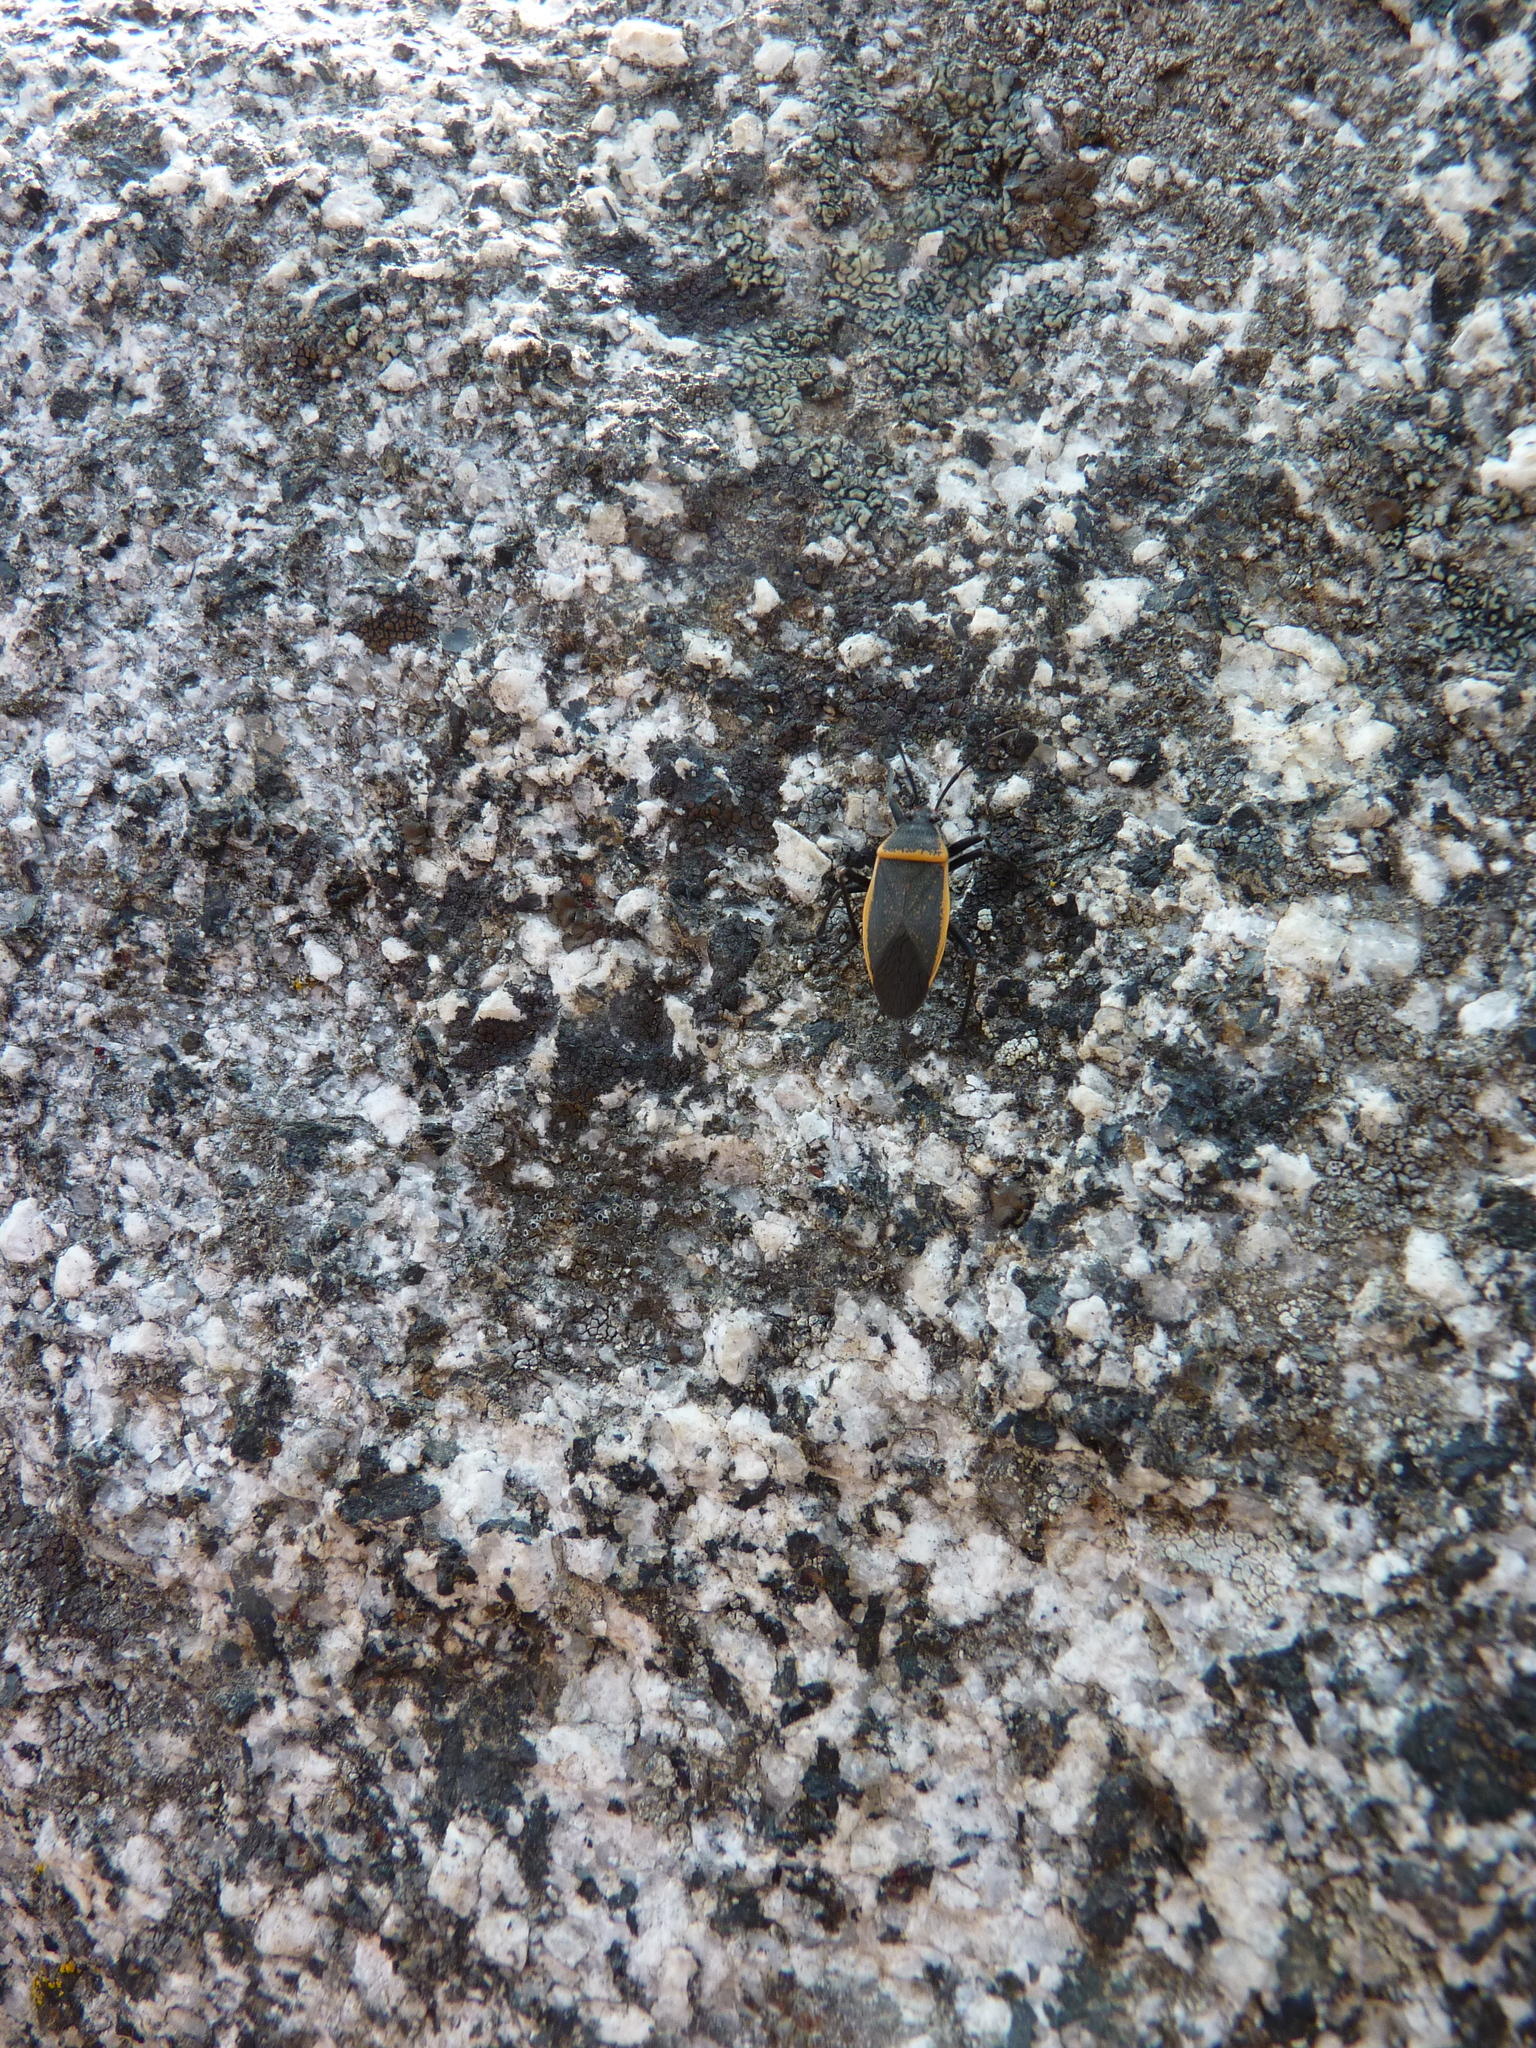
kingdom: Animalia
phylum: Arthropoda
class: Insecta
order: Hemiptera
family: Largidae
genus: Largus
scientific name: Largus californicus
